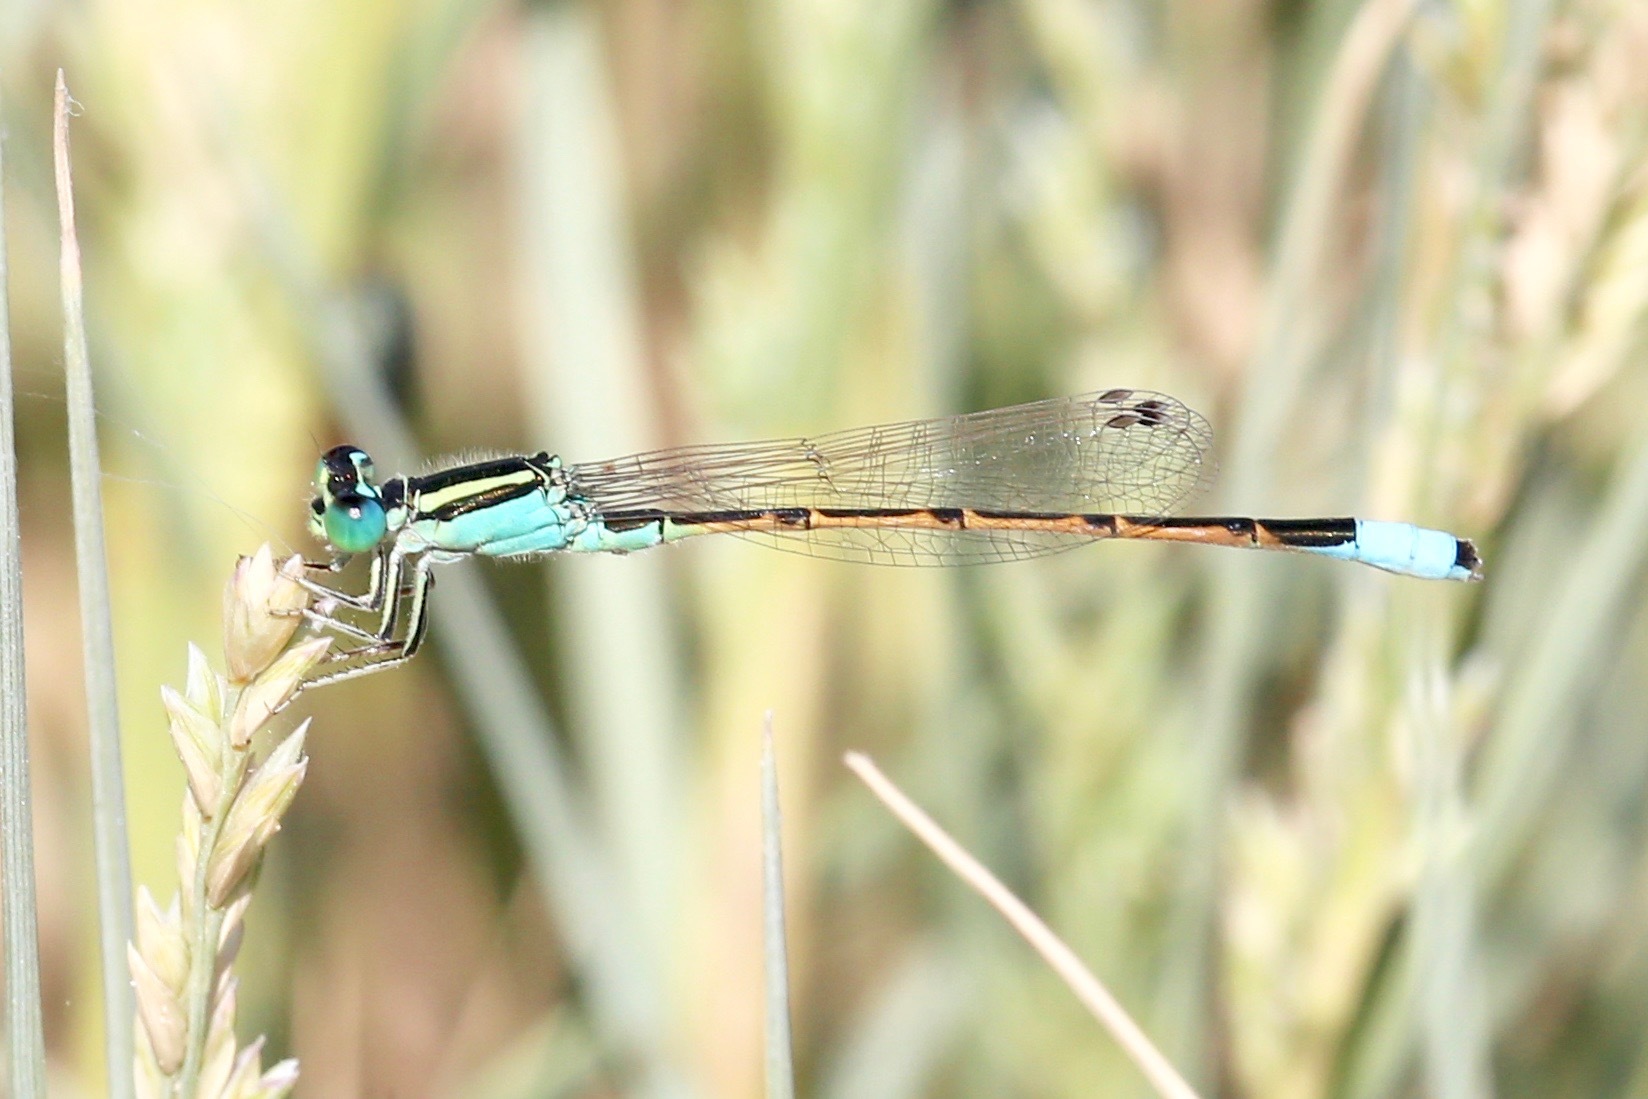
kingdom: Animalia
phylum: Arthropoda
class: Insecta
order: Odonata
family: Coenagrionidae
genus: Ischnura
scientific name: Ischnura barberi
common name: Desert forktail
